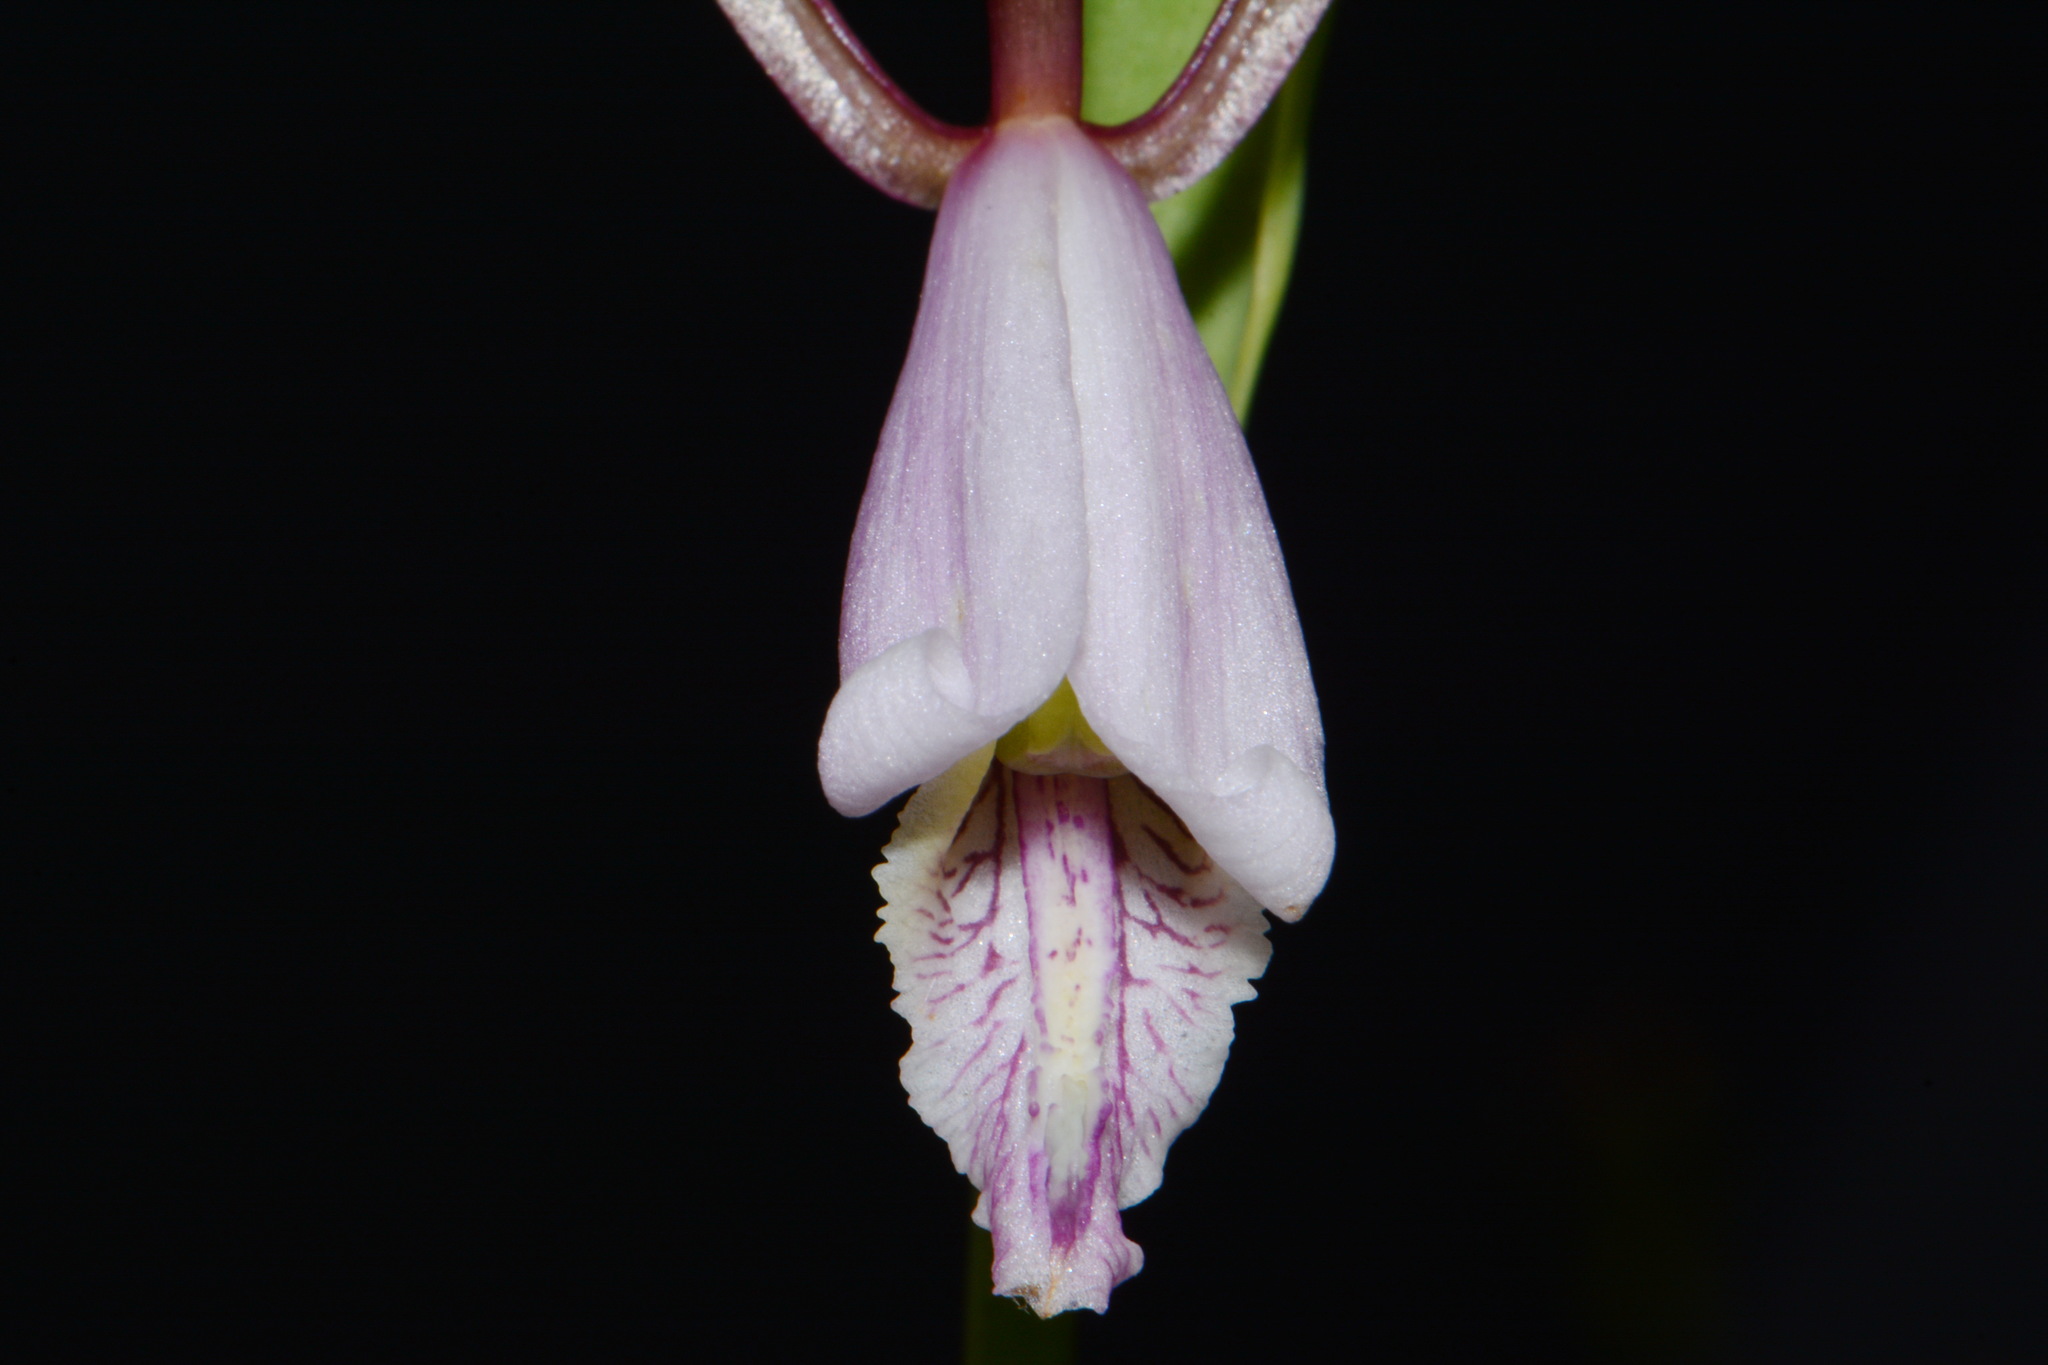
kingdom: Plantae
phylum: Tracheophyta
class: Liliopsida
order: Asparagales
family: Orchidaceae
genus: Cleistesiopsis
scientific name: Cleistesiopsis bifaria
